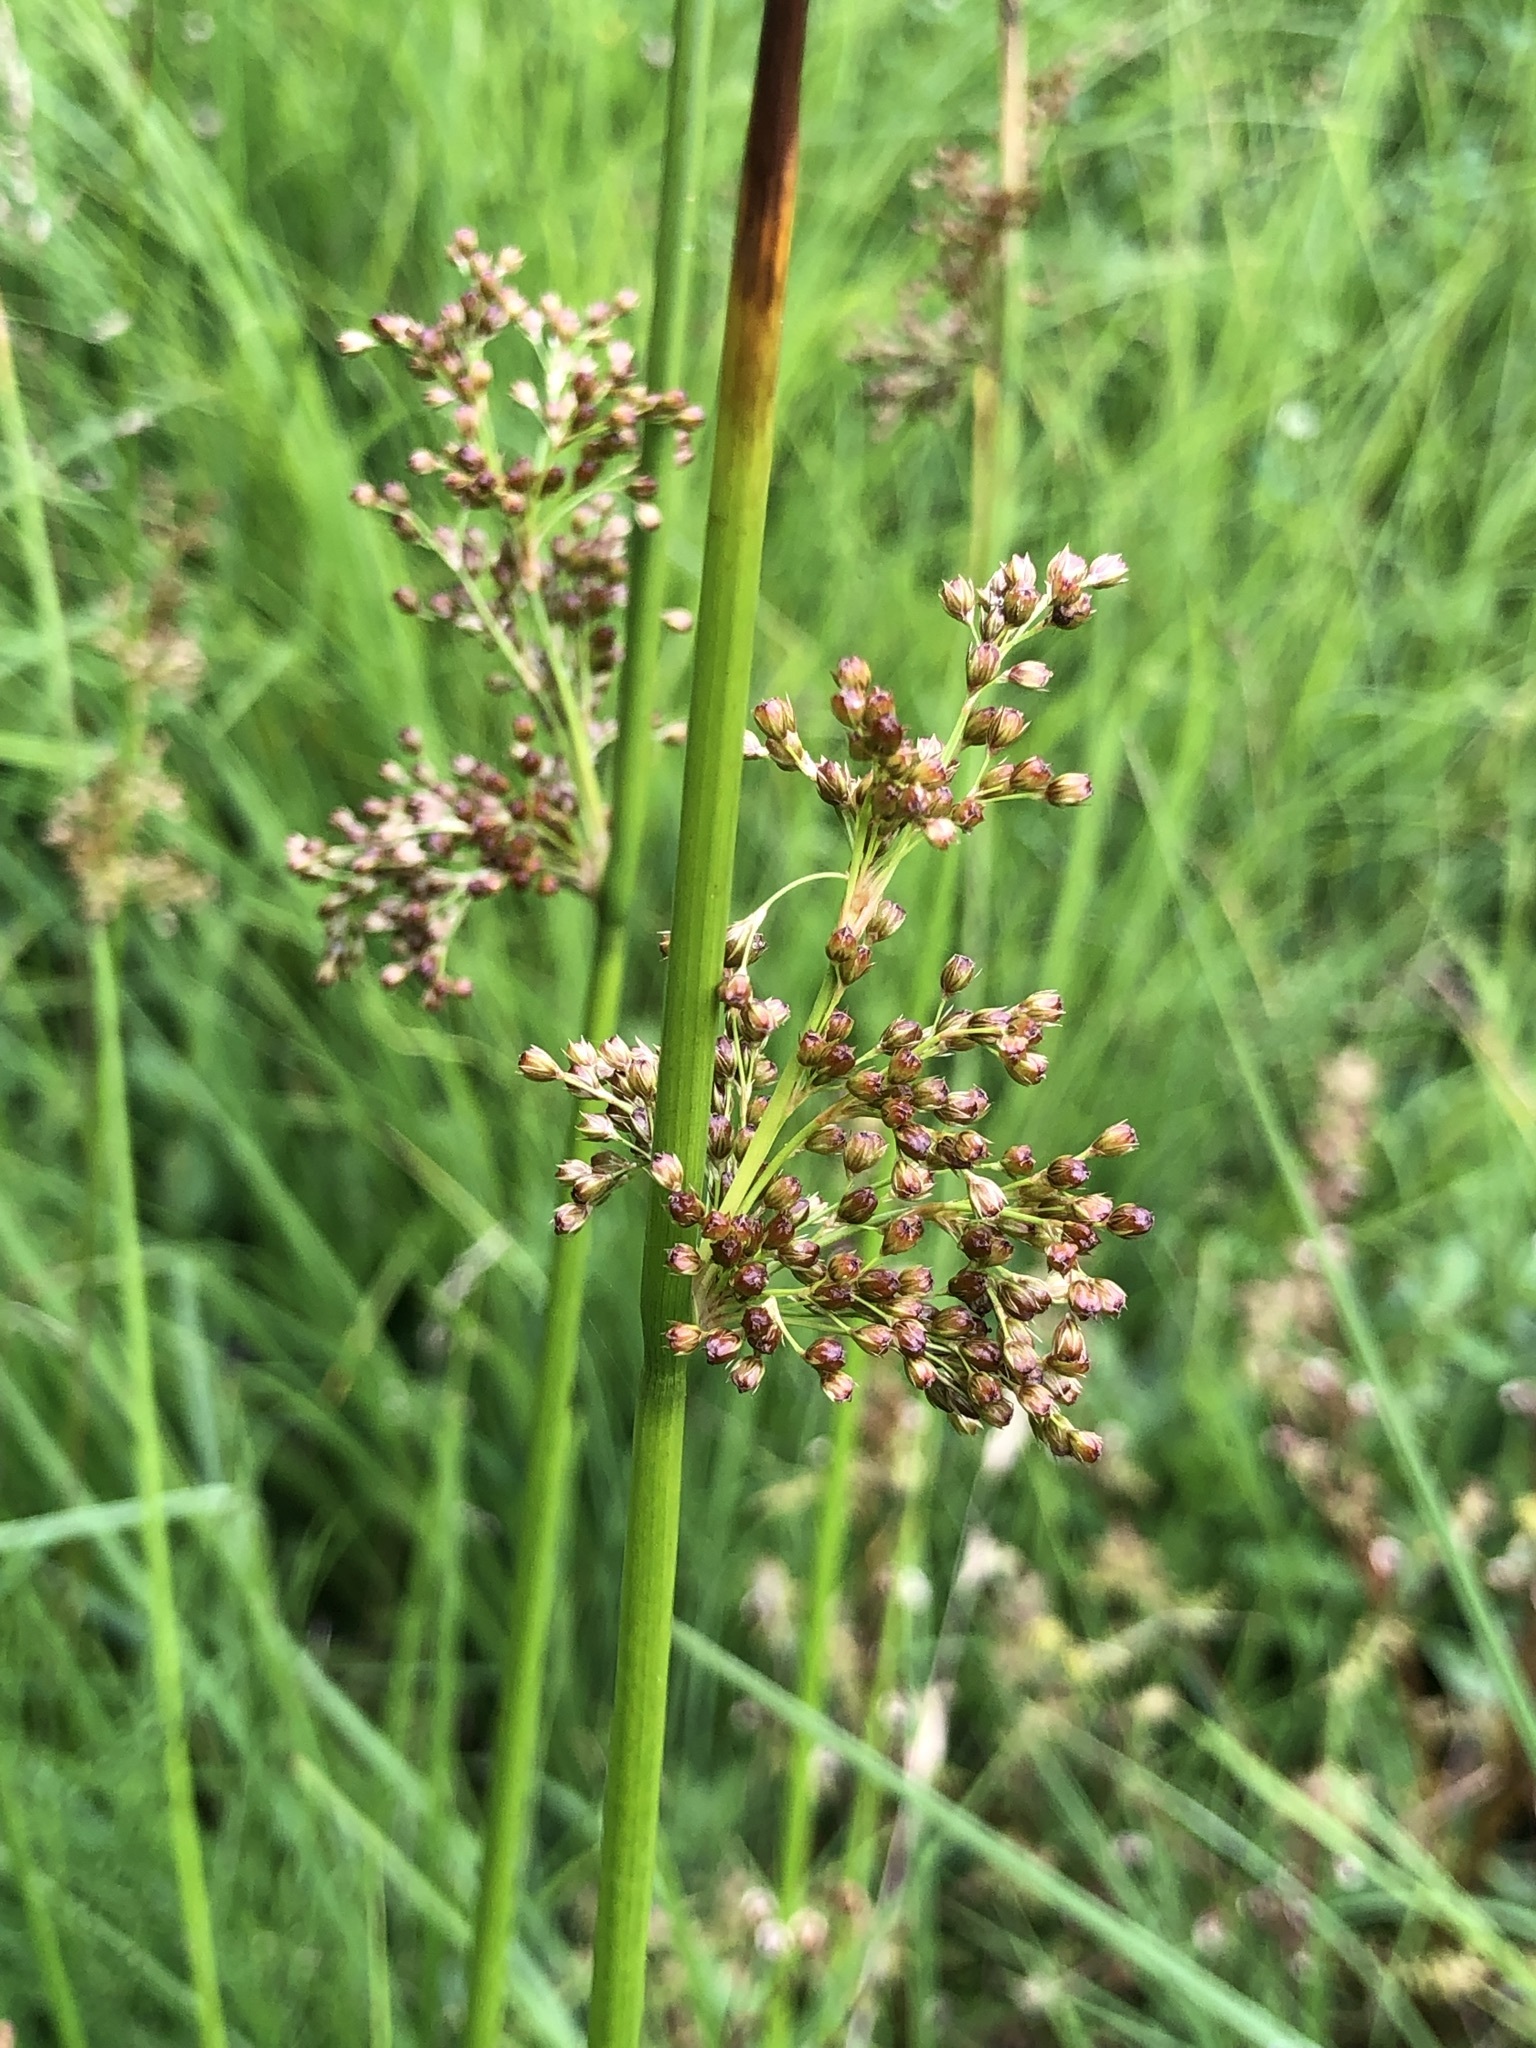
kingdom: Plantae
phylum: Tracheophyta
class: Liliopsida
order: Poales
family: Juncaceae
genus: Juncus
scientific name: Juncus effusus
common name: Soft rush
